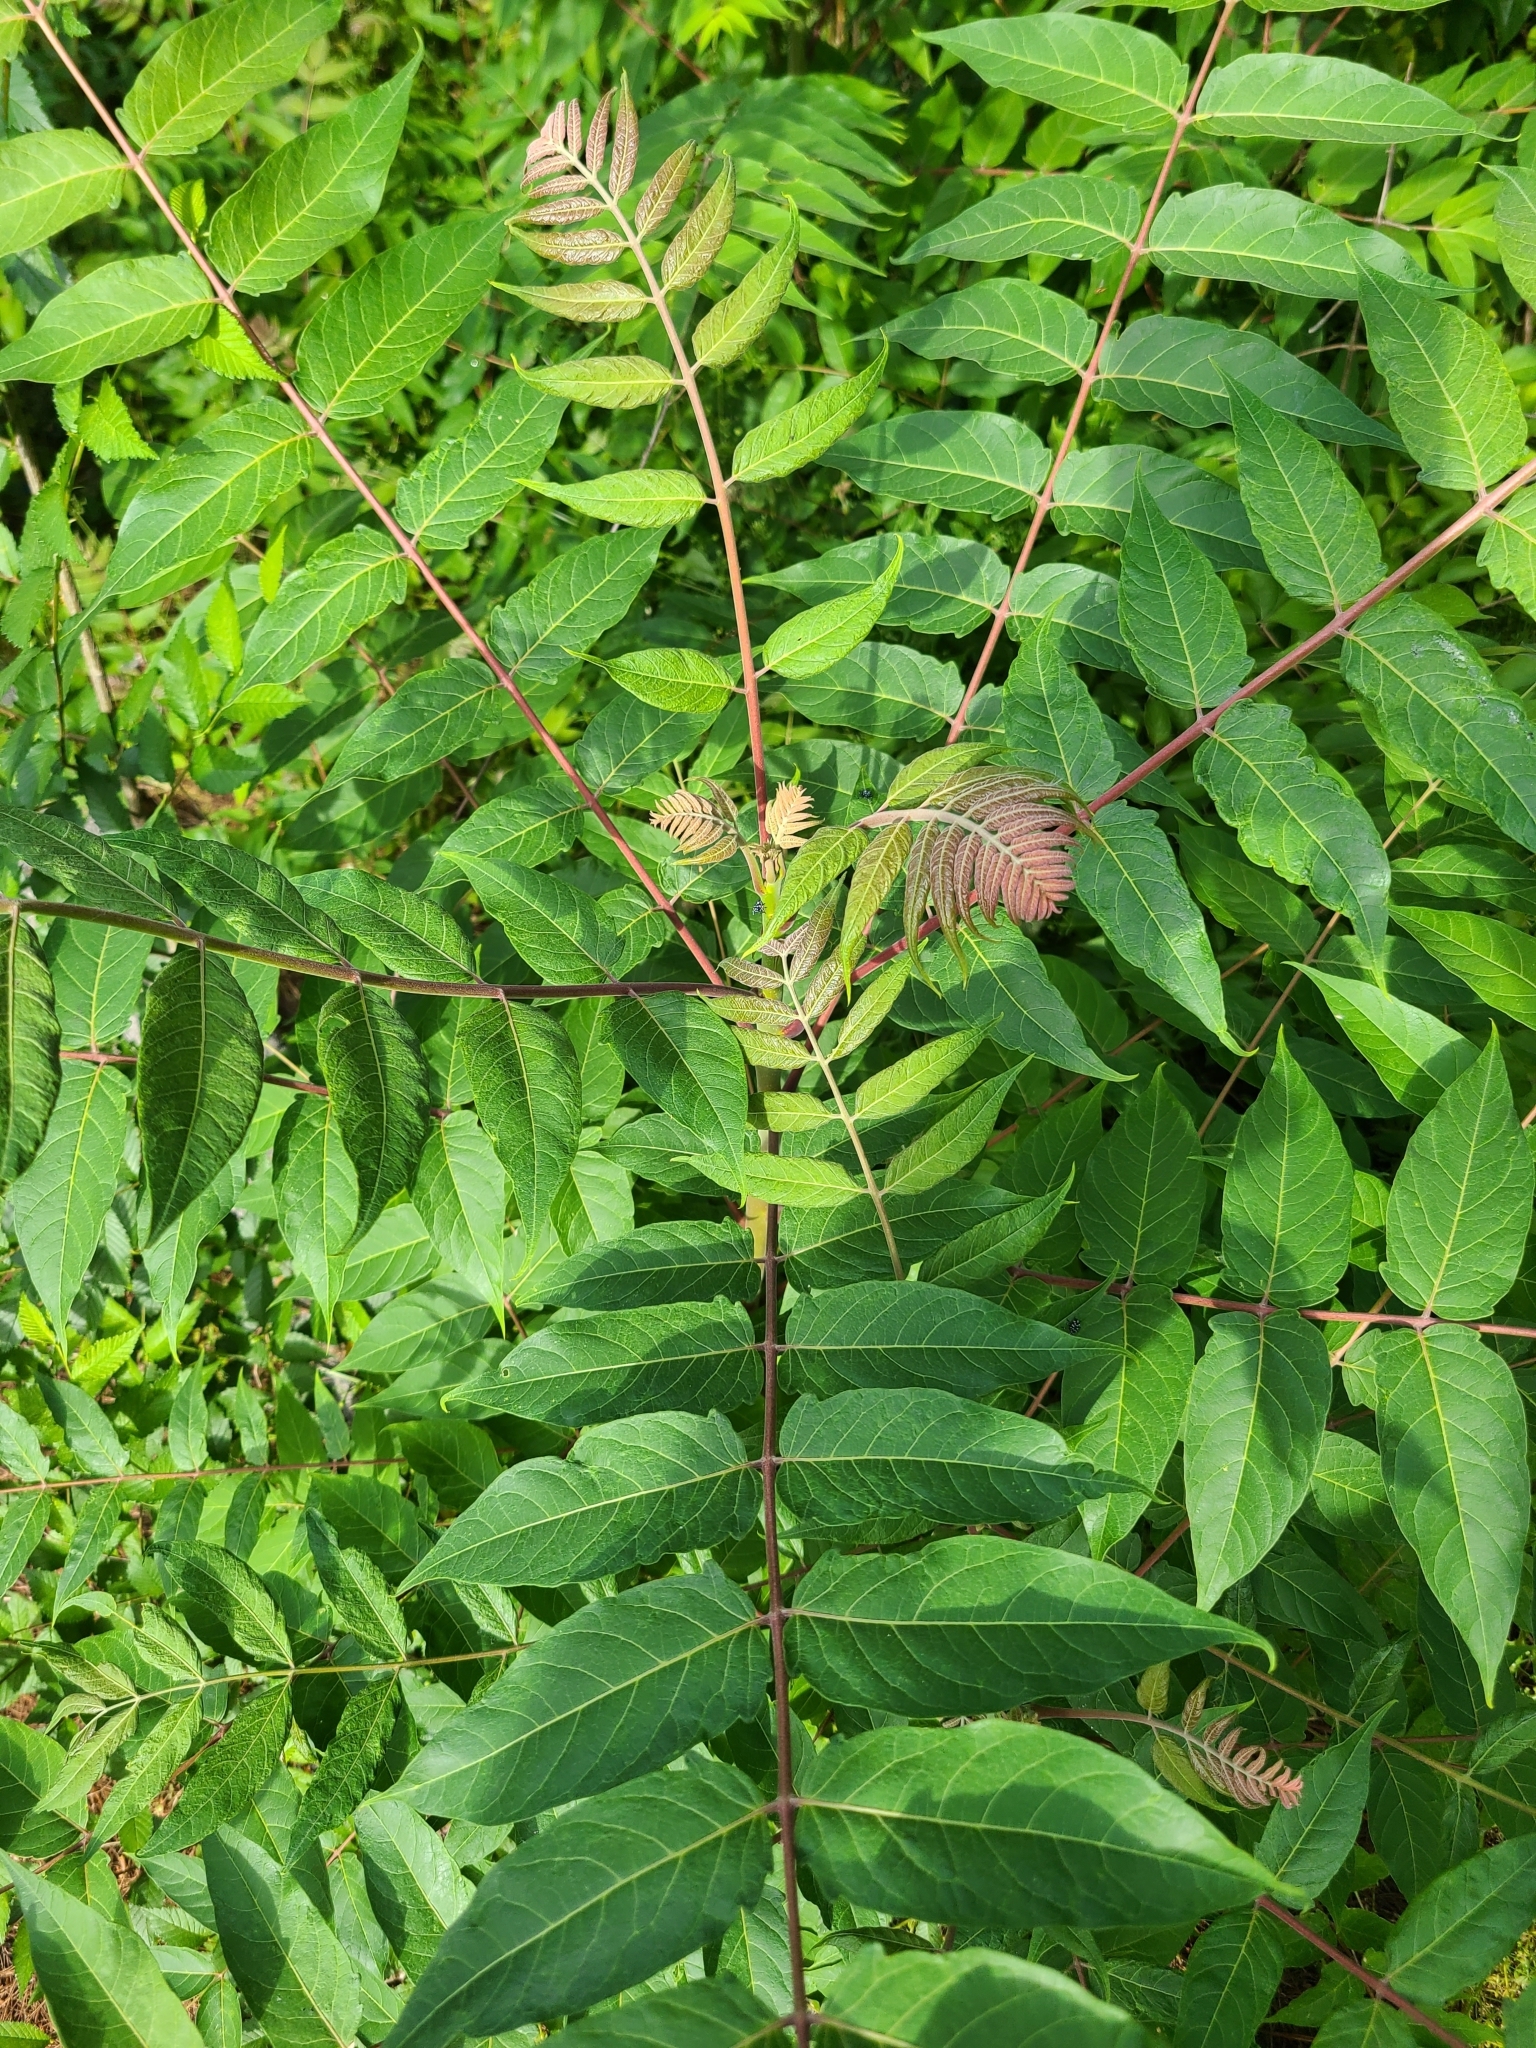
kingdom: Plantae
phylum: Tracheophyta
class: Magnoliopsida
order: Sapindales
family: Simaroubaceae
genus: Ailanthus
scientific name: Ailanthus altissima
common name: Tree-of-heaven
